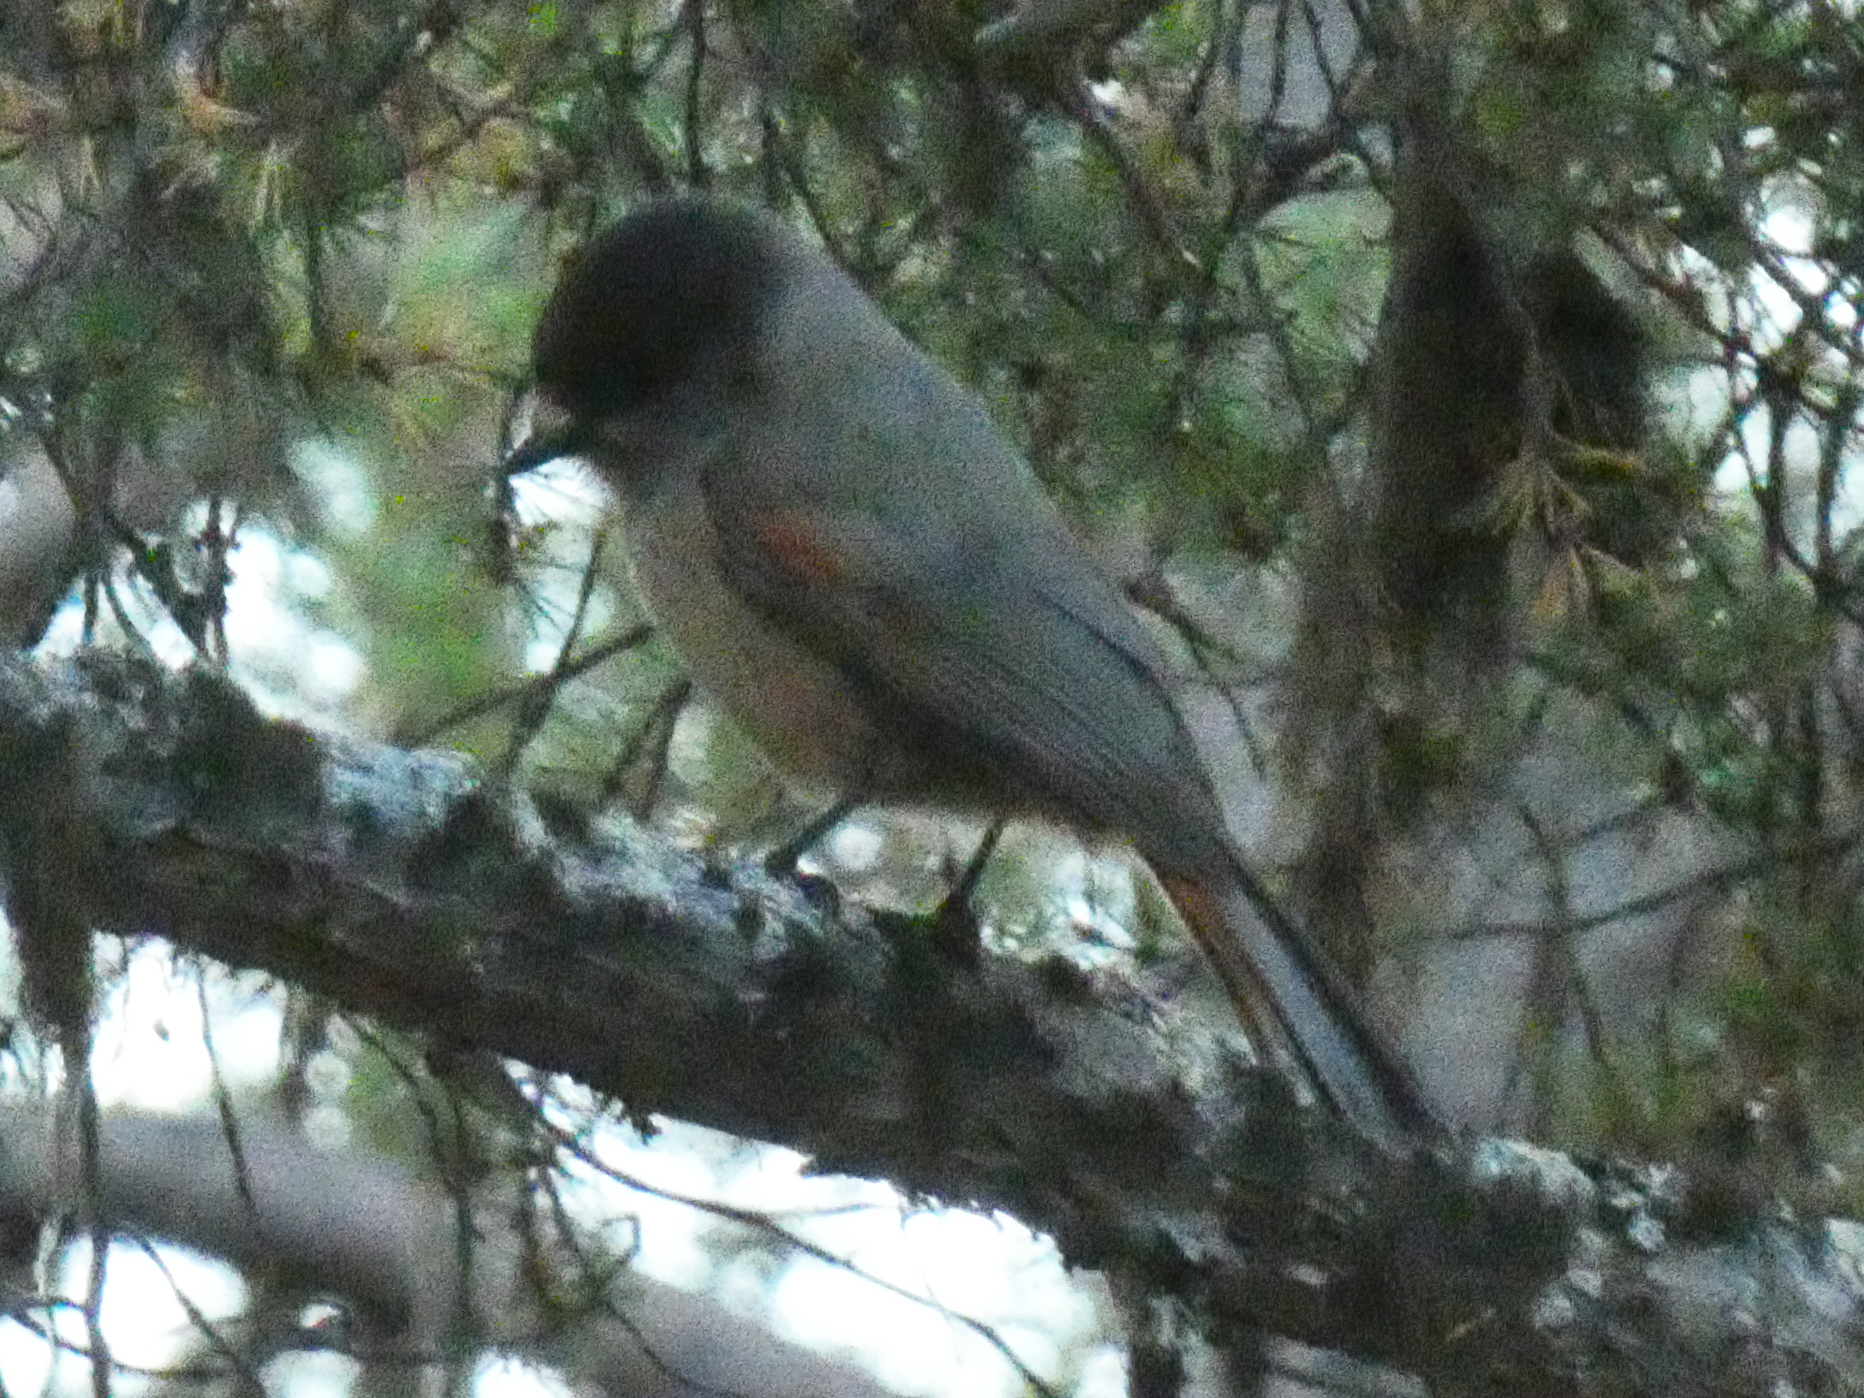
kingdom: Animalia
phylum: Chordata
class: Aves
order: Passeriformes
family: Corvidae
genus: Perisoreus
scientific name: Perisoreus infaustus
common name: Siberian jay
